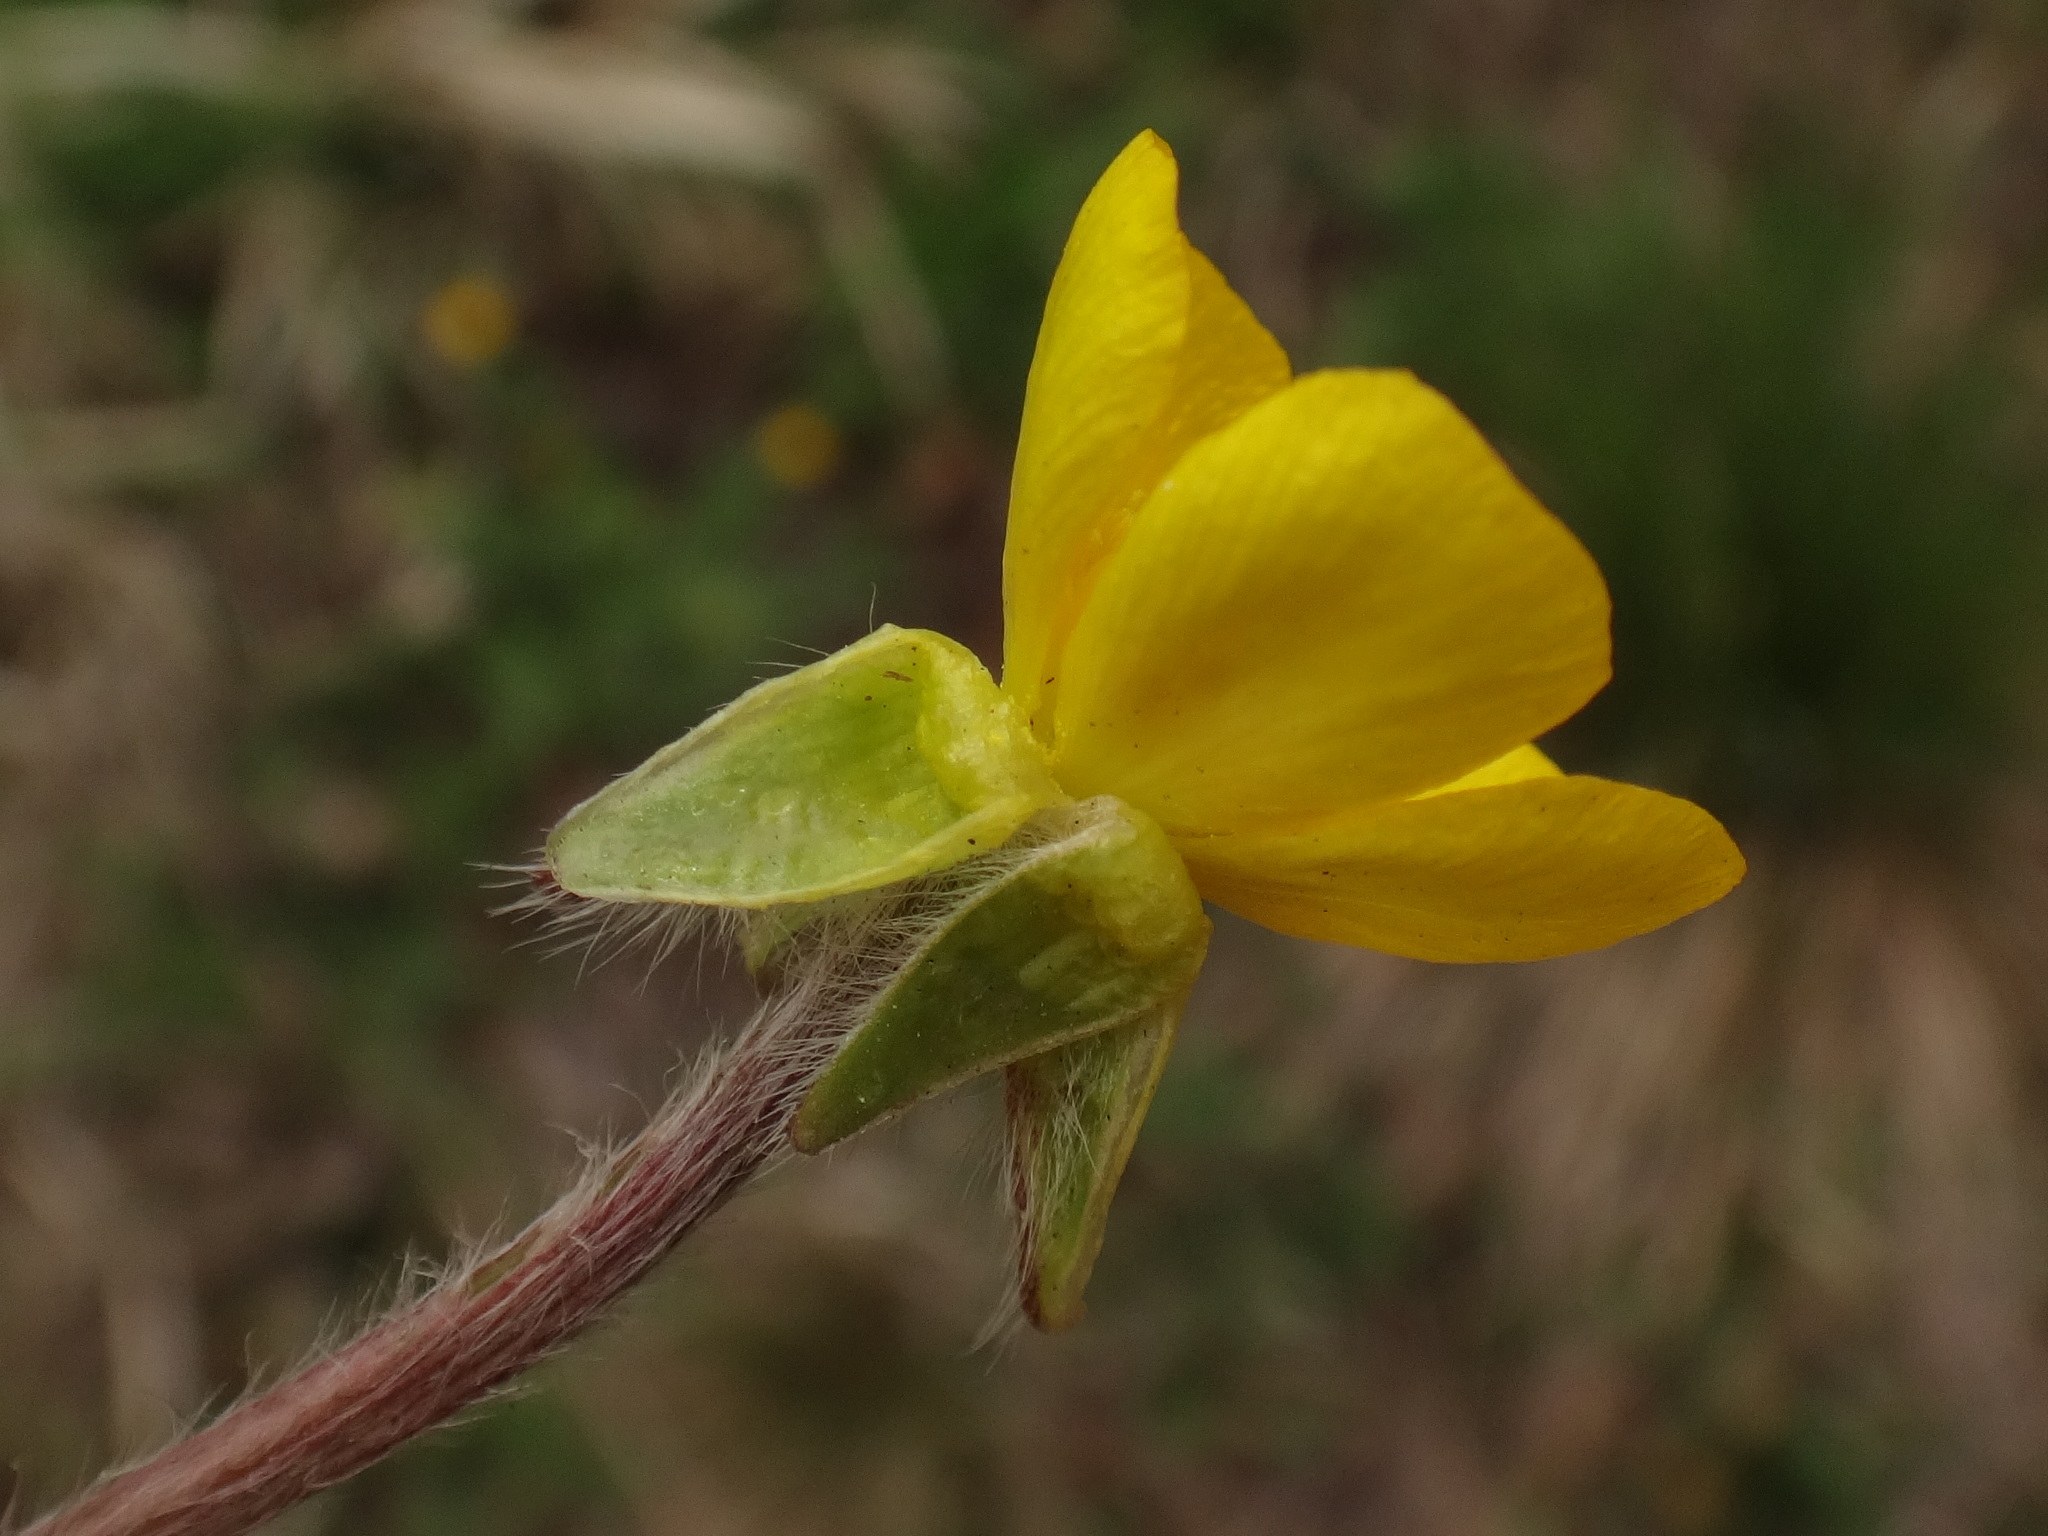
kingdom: Plantae
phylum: Tracheophyta
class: Magnoliopsida
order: Ranunculales
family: Ranunculaceae
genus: Ranunculus
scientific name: Ranunculus bulbosus
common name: Bulbous buttercup
